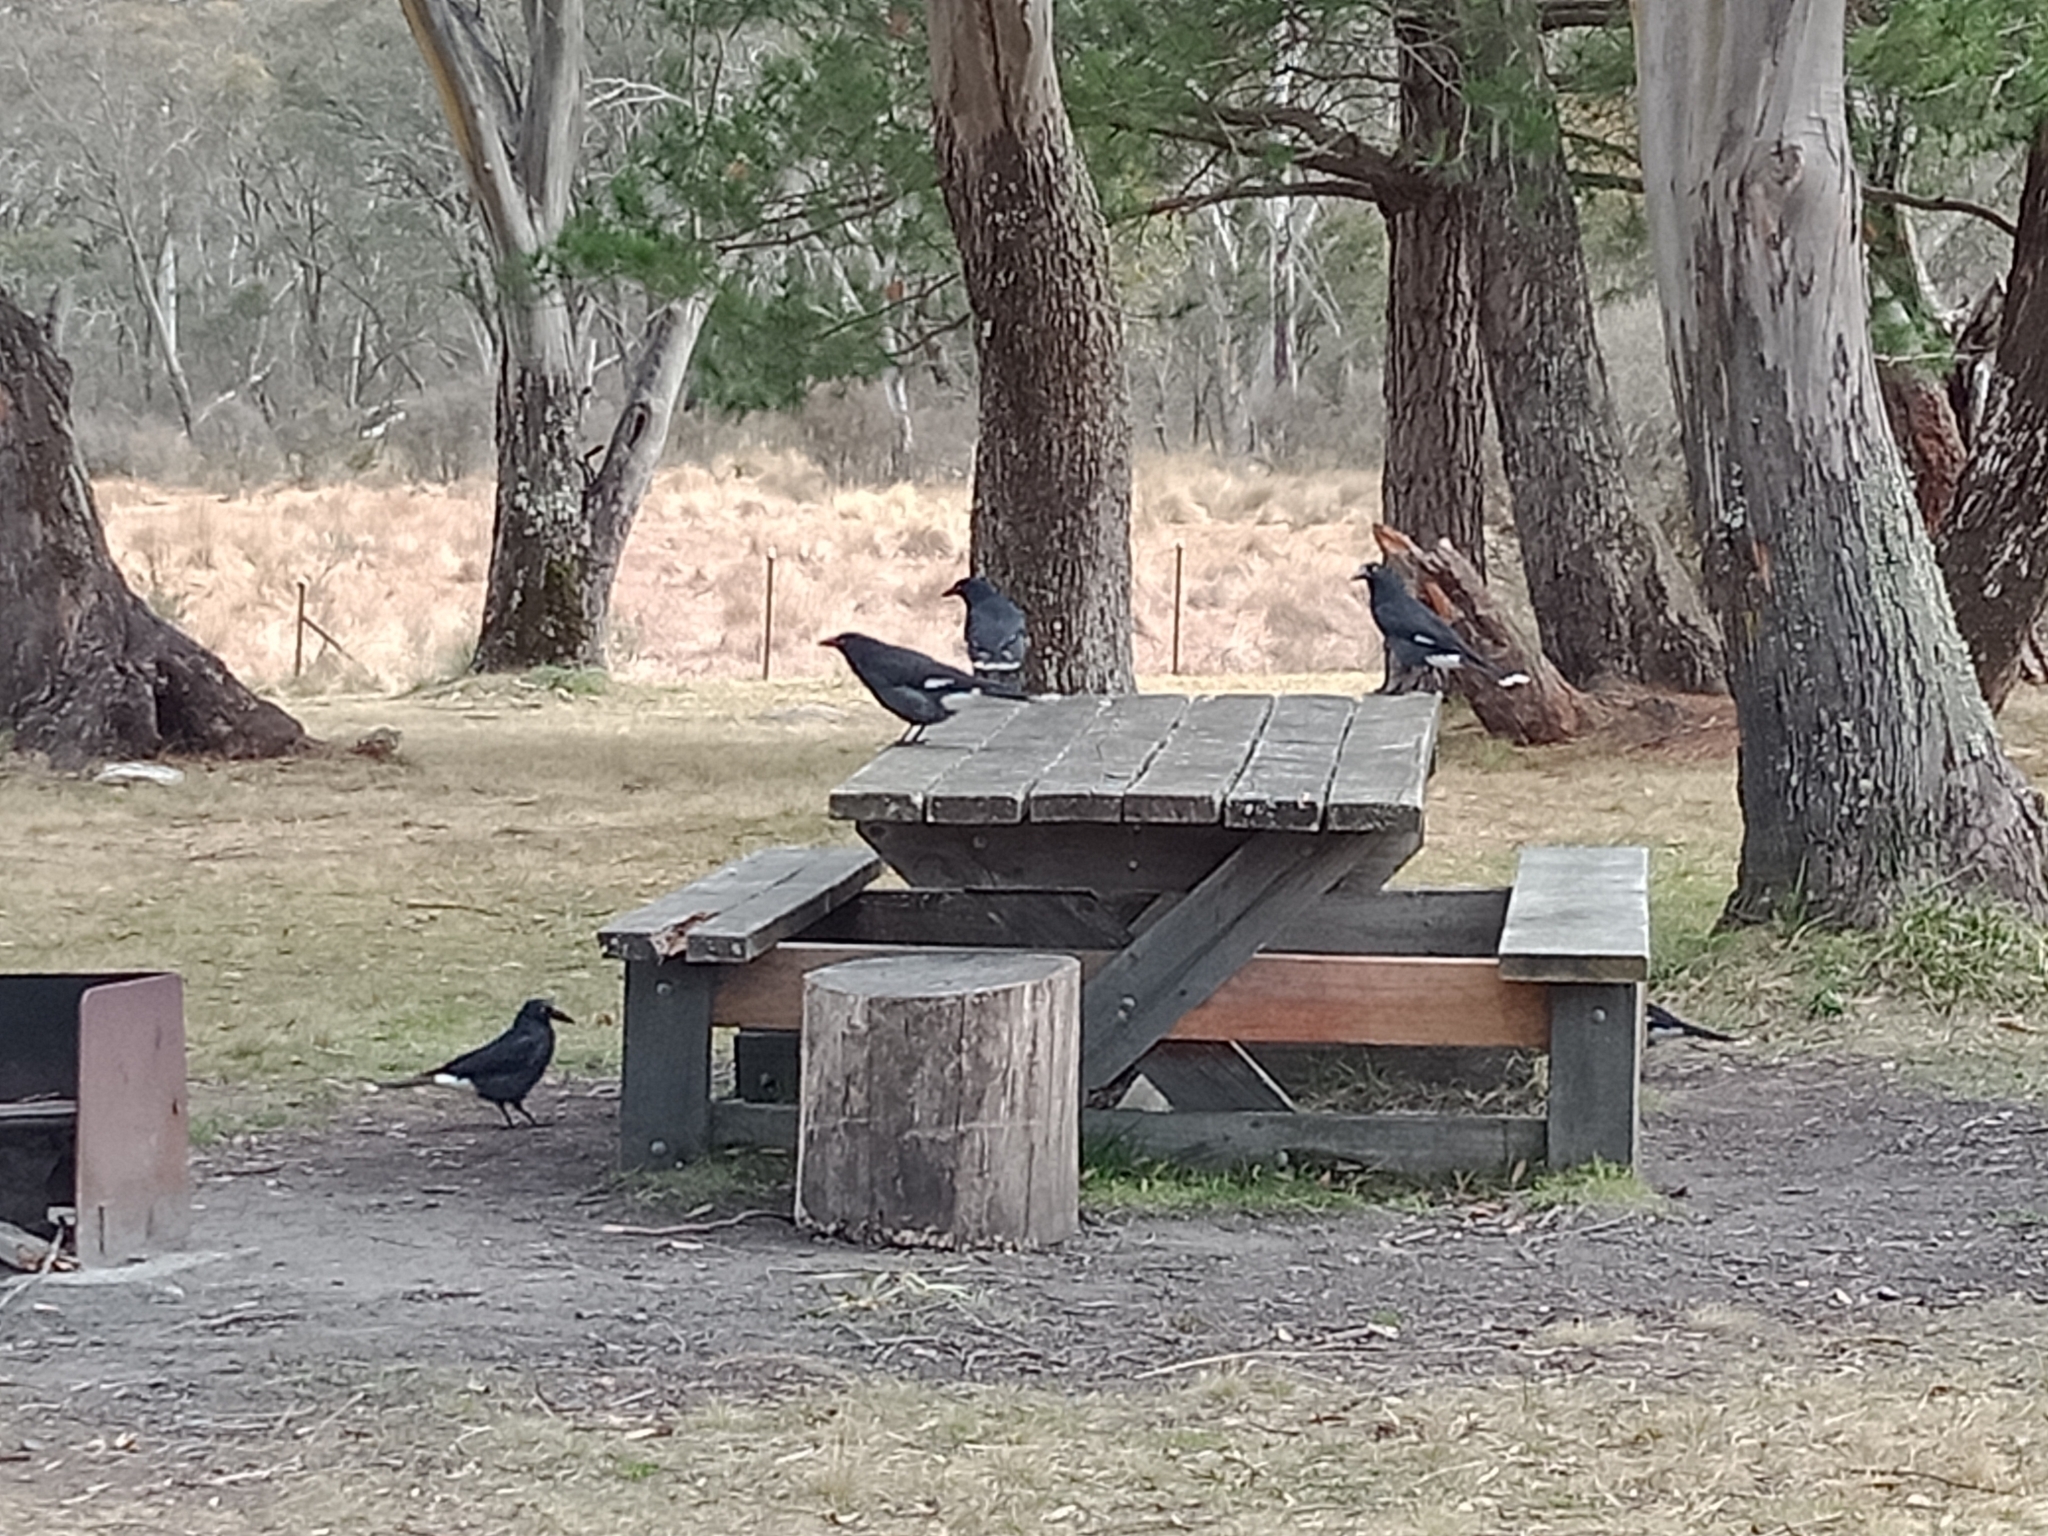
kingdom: Animalia
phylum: Chordata
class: Aves
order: Passeriformes
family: Cracticidae
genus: Strepera
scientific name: Strepera graculina
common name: Pied currawong
